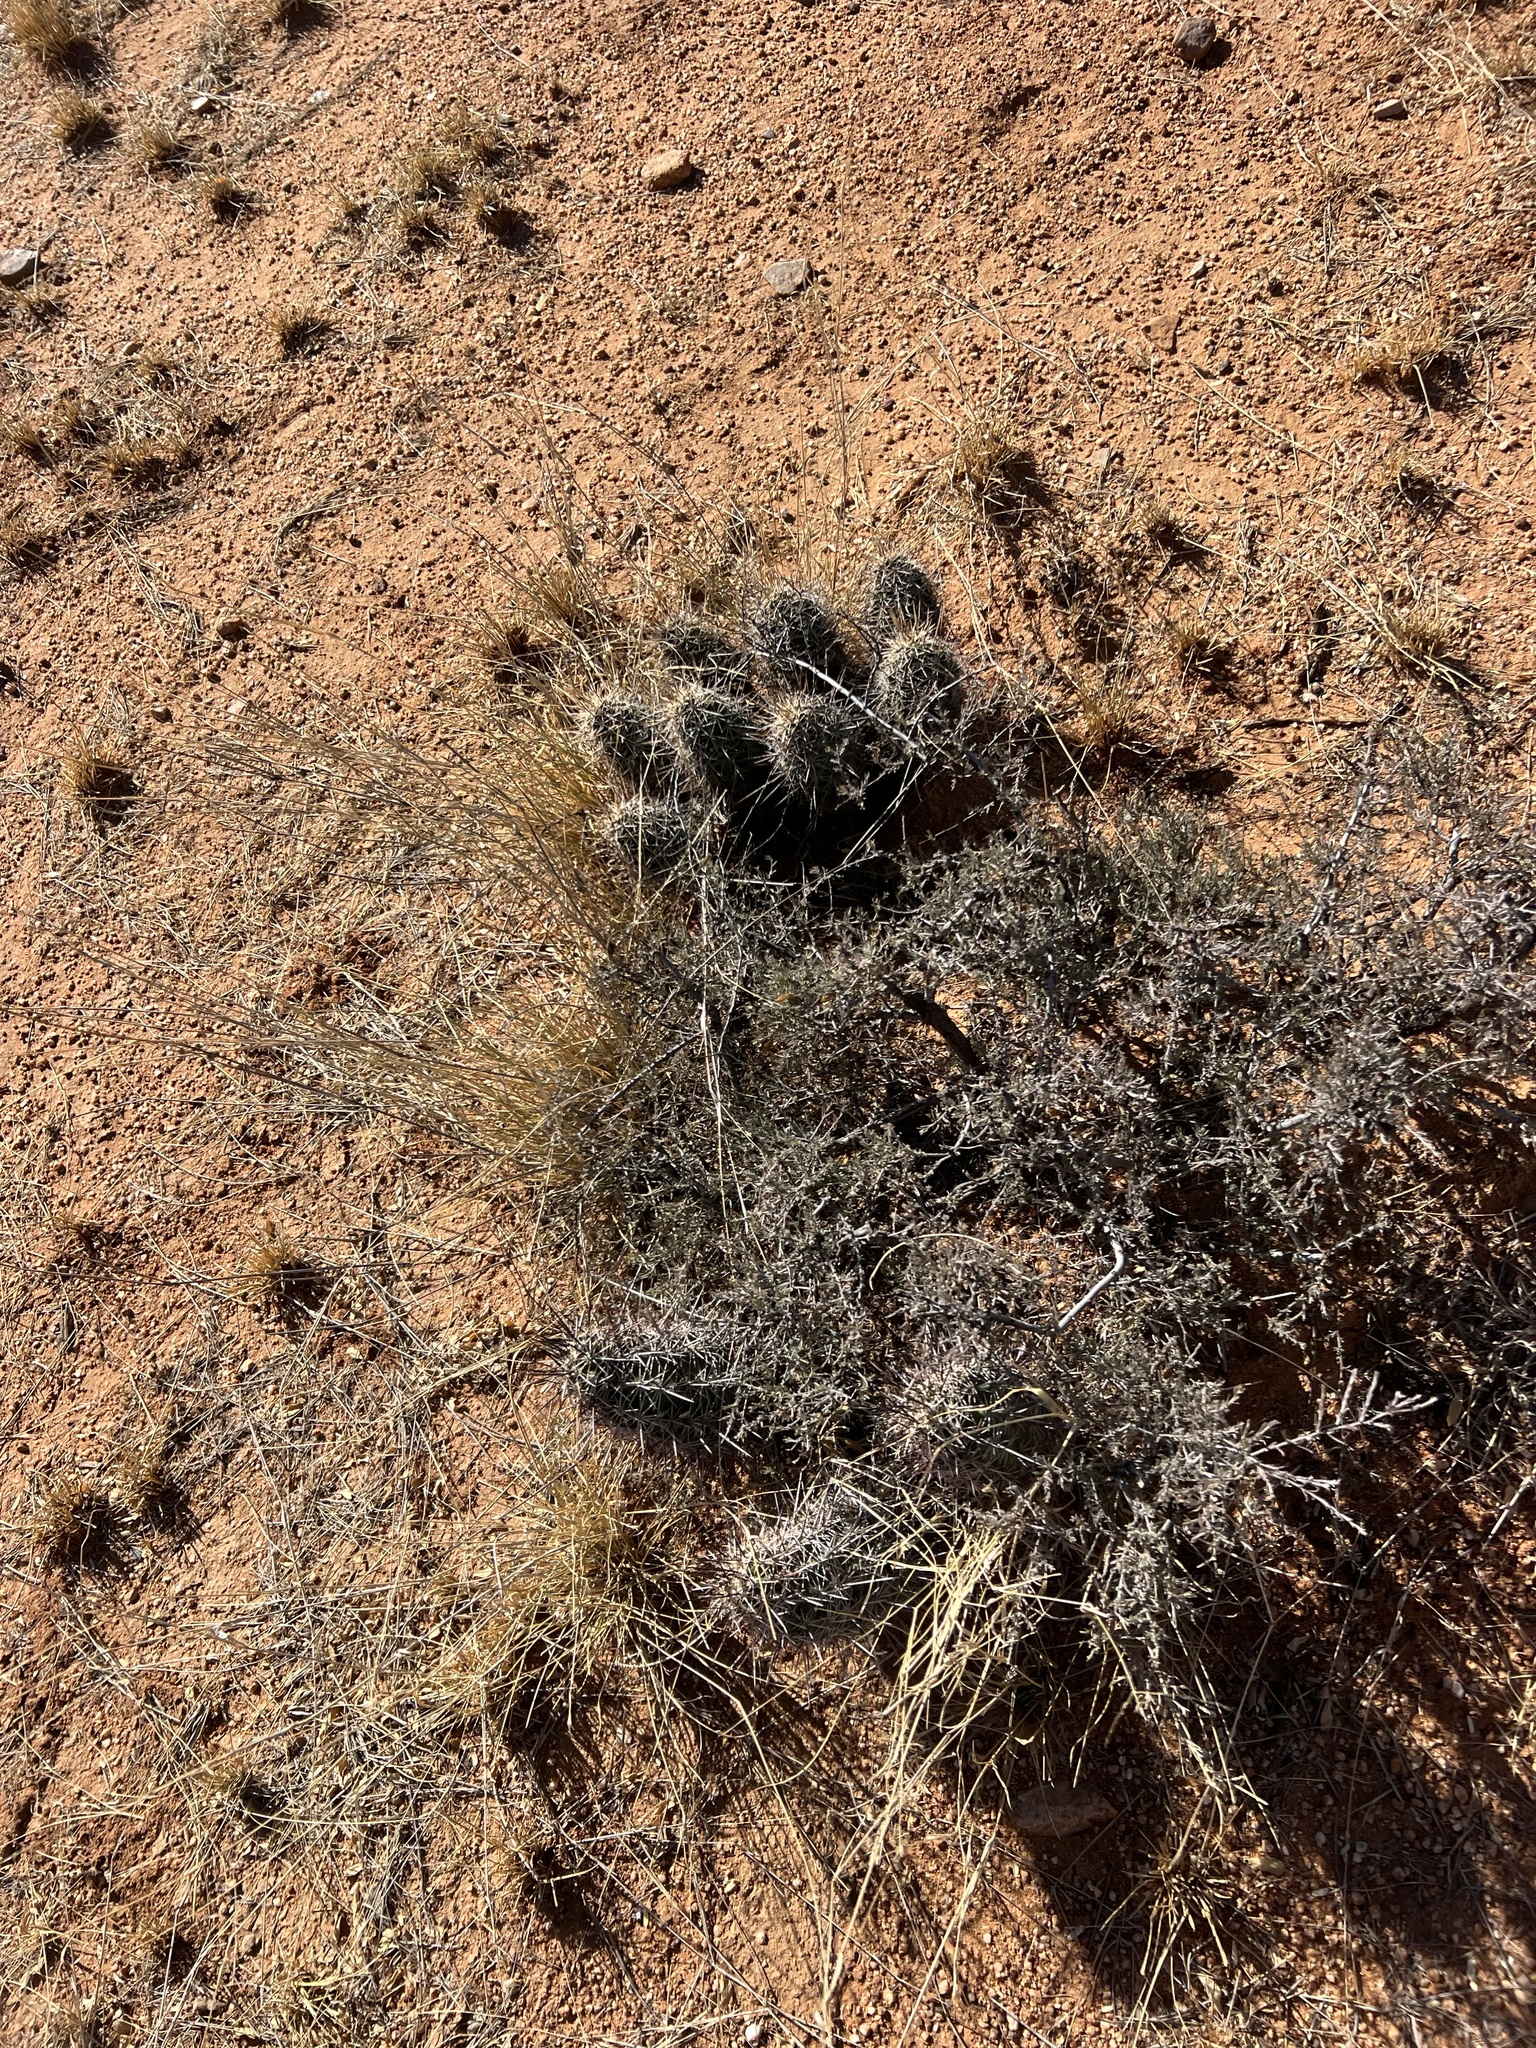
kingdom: Plantae
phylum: Tracheophyta
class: Magnoliopsida
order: Caryophyllales
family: Cactaceae
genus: Echinocereus
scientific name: Echinocereus fasciculatus
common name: Bundle hedgehog
